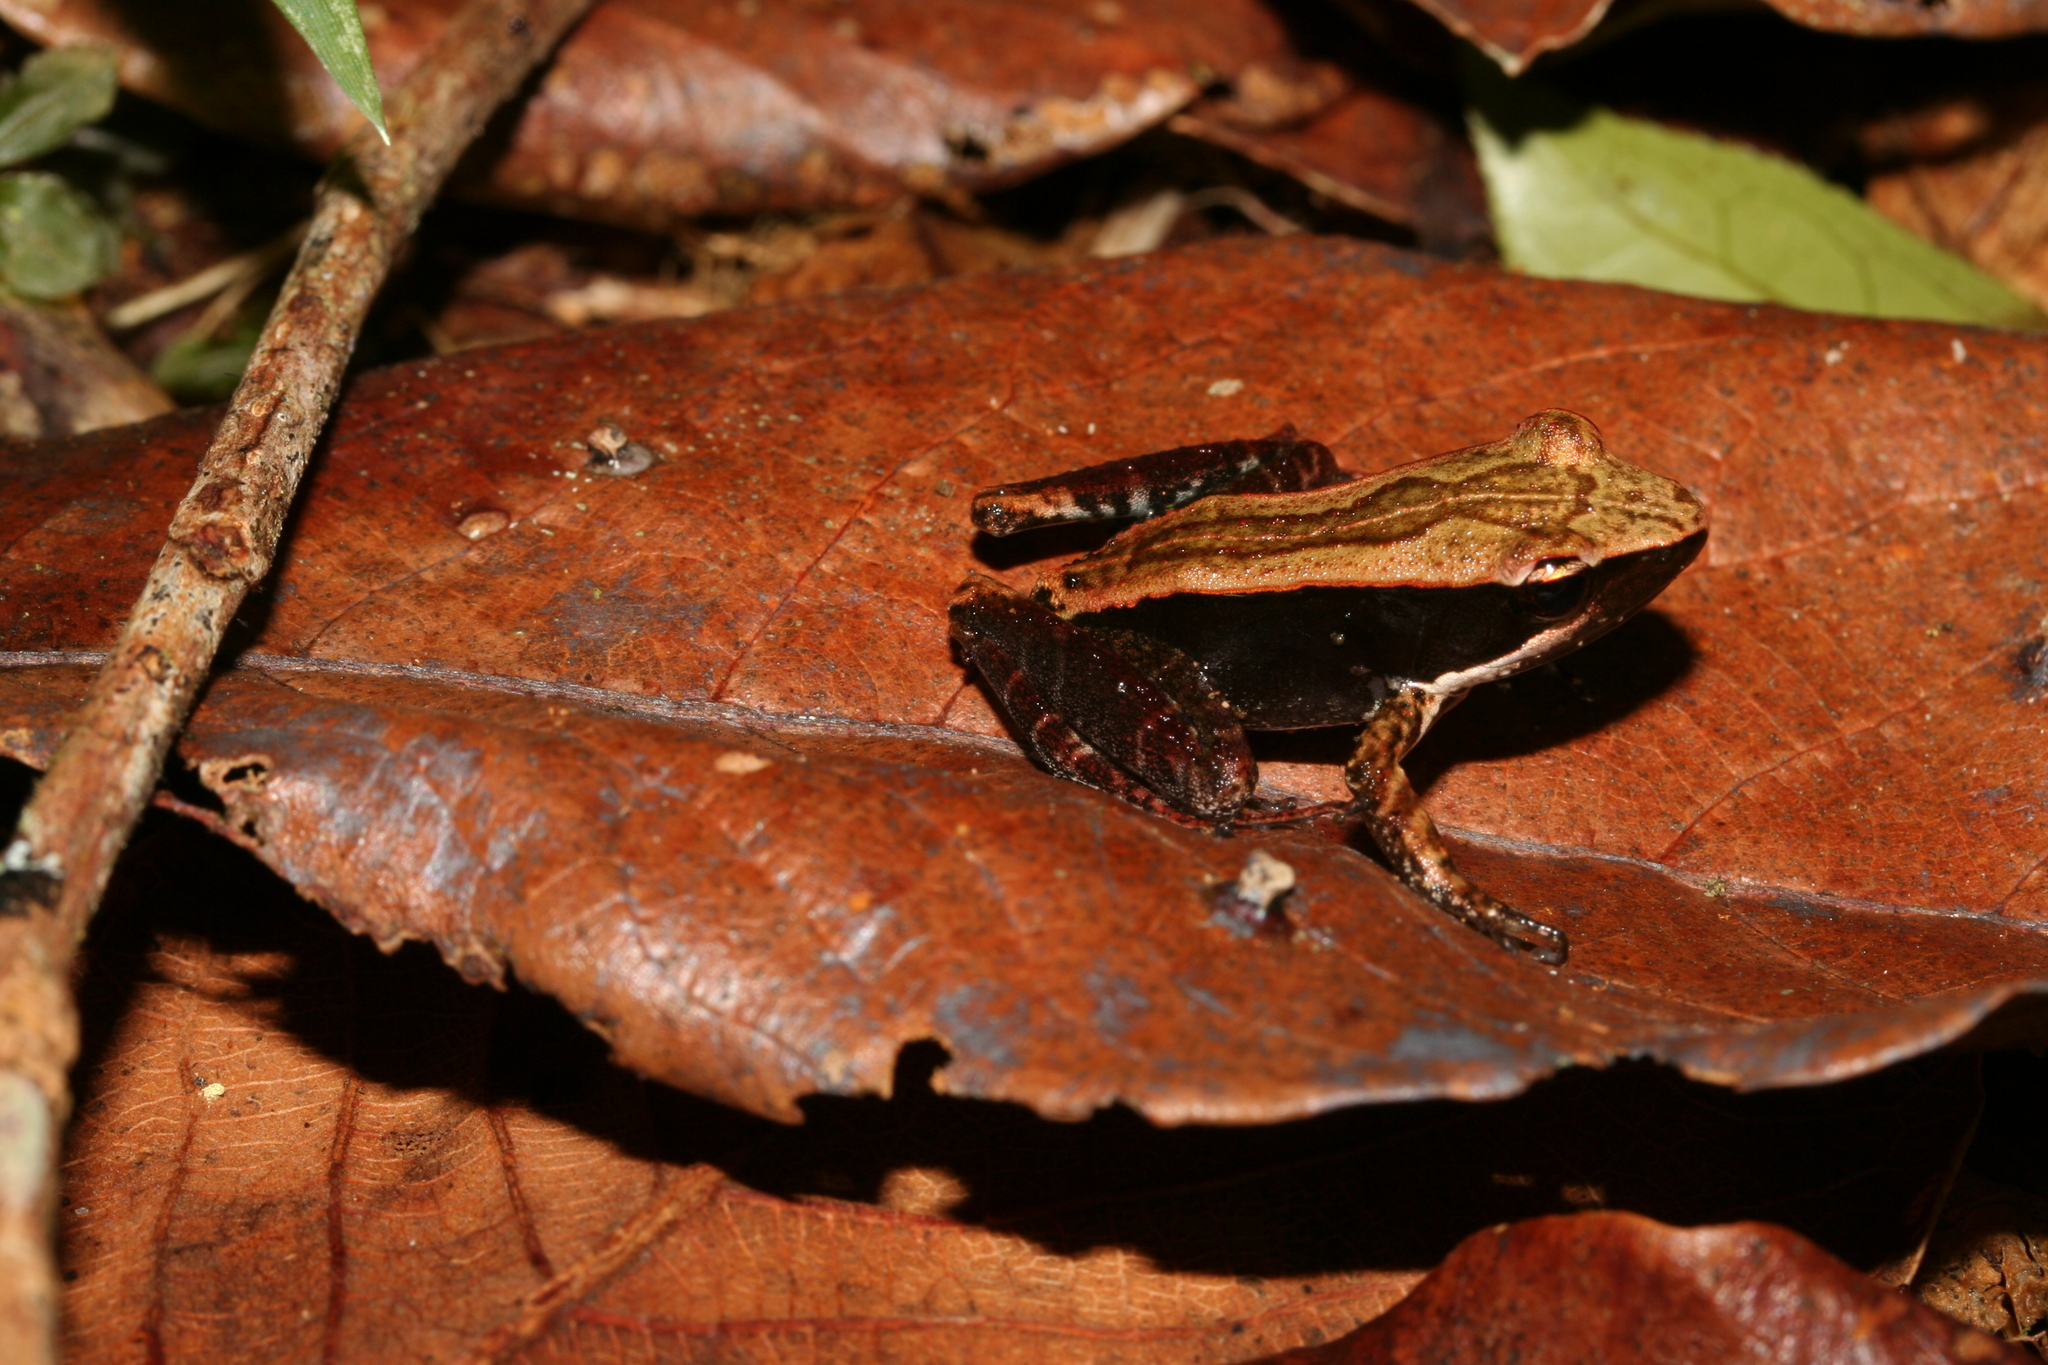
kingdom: Animalia
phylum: Chordata
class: Amphibia
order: Anura
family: Mantellidae
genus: Mantidactylus
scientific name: Mantidactylus opiparis
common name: Central madagascar frog
